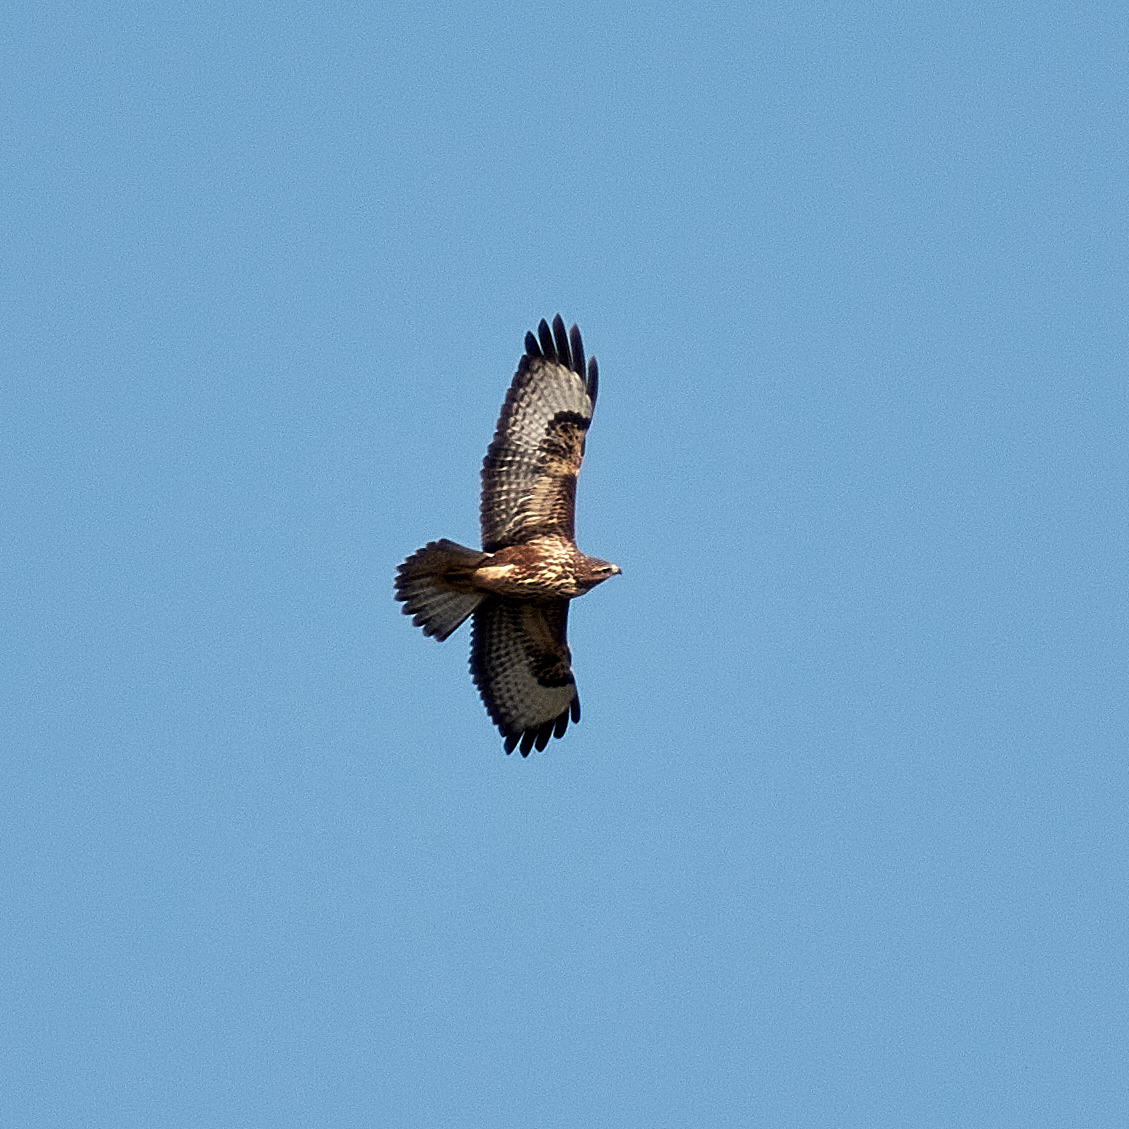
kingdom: Animalia
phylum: Chordata
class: Aves
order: Accipitriformes
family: Accipitridae
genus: Buteo
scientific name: Buteo buteo
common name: Common buzzard
